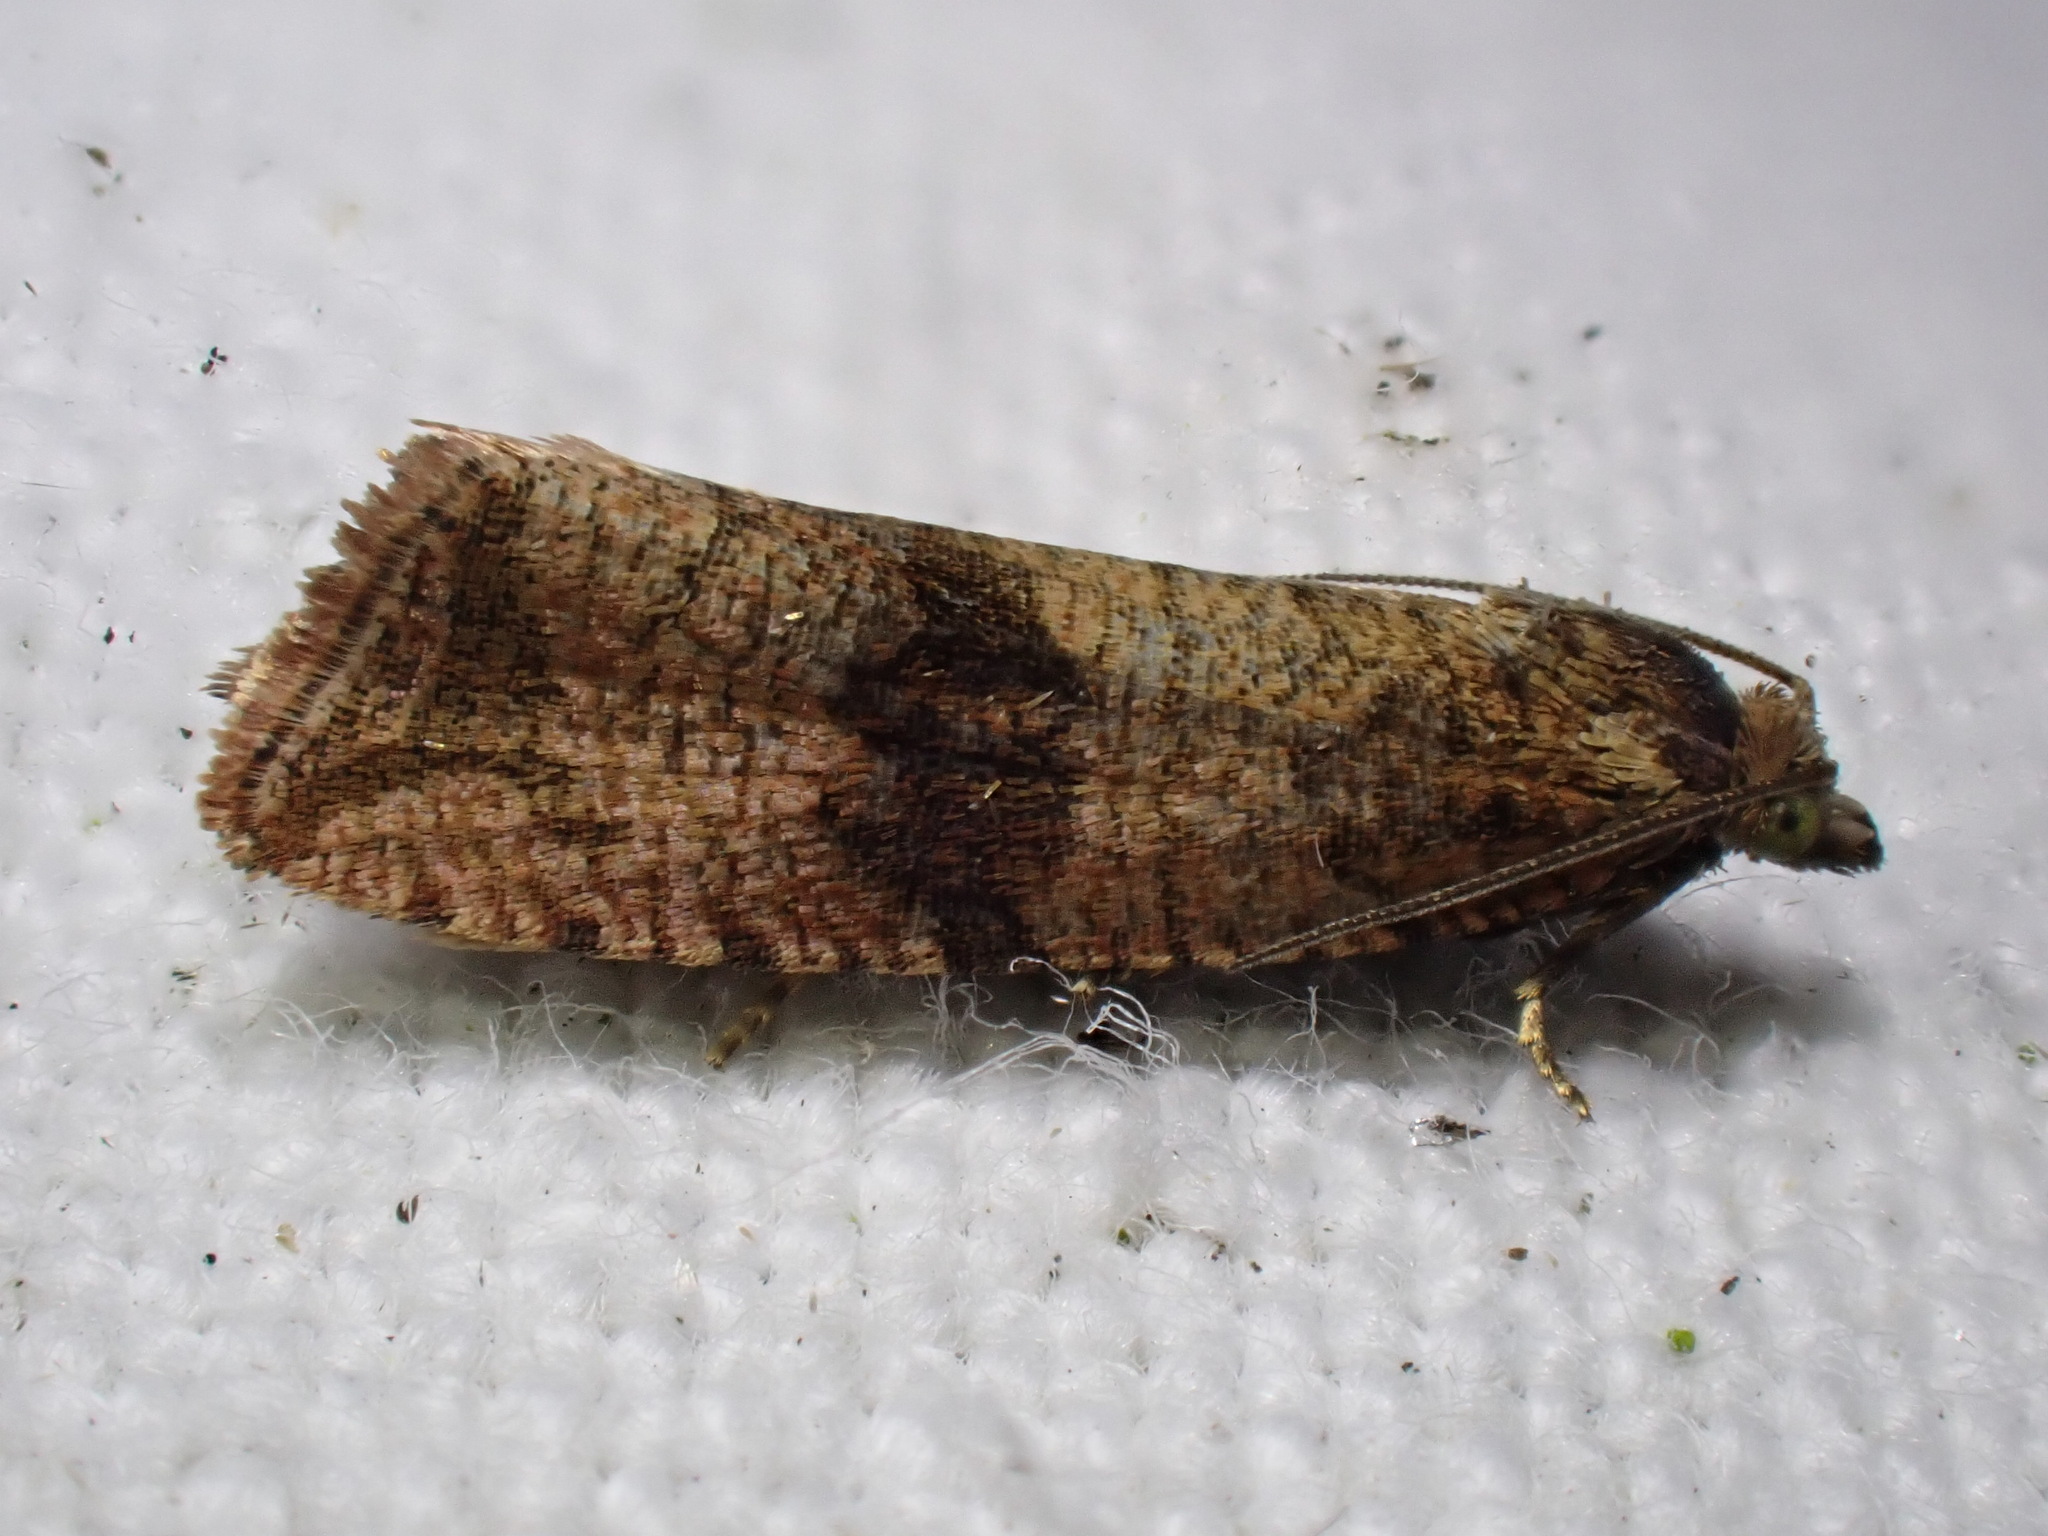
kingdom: Animalia
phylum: Arthropoda
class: Insecta
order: Lepidoptera
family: Tortricidae
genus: Celypha
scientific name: Celypha striana
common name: Barred marble
